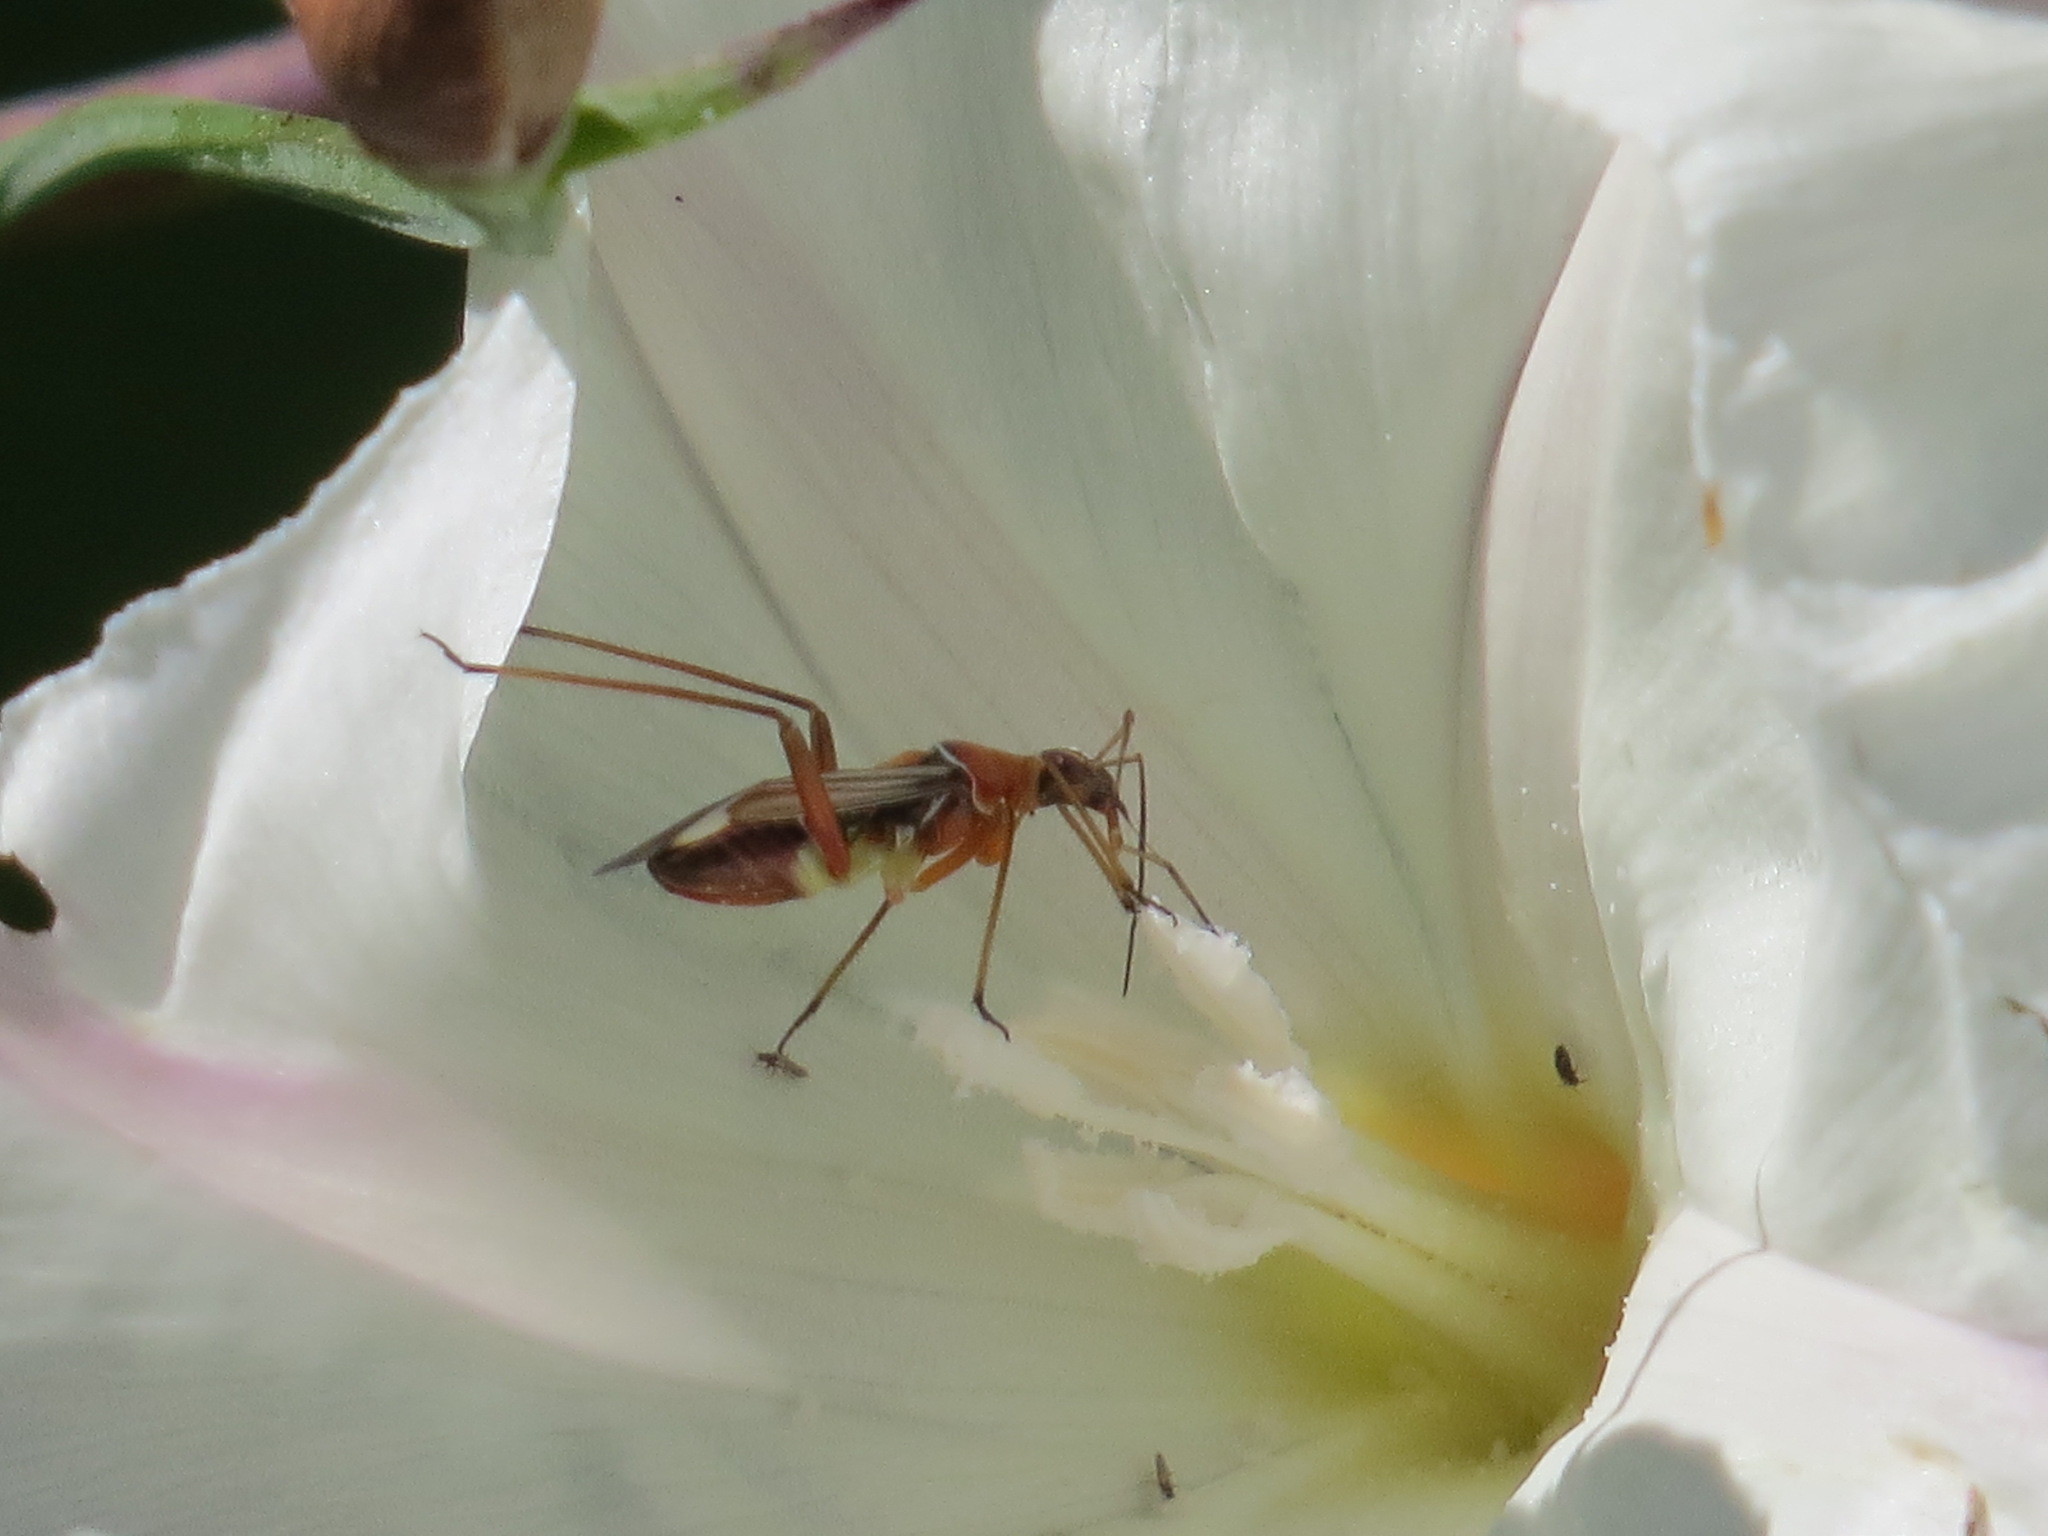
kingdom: Animalia
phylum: Arthropoda
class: Insecta
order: Hemiptera
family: Miridae
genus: Closterocoris
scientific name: Closterocoris amoenus
